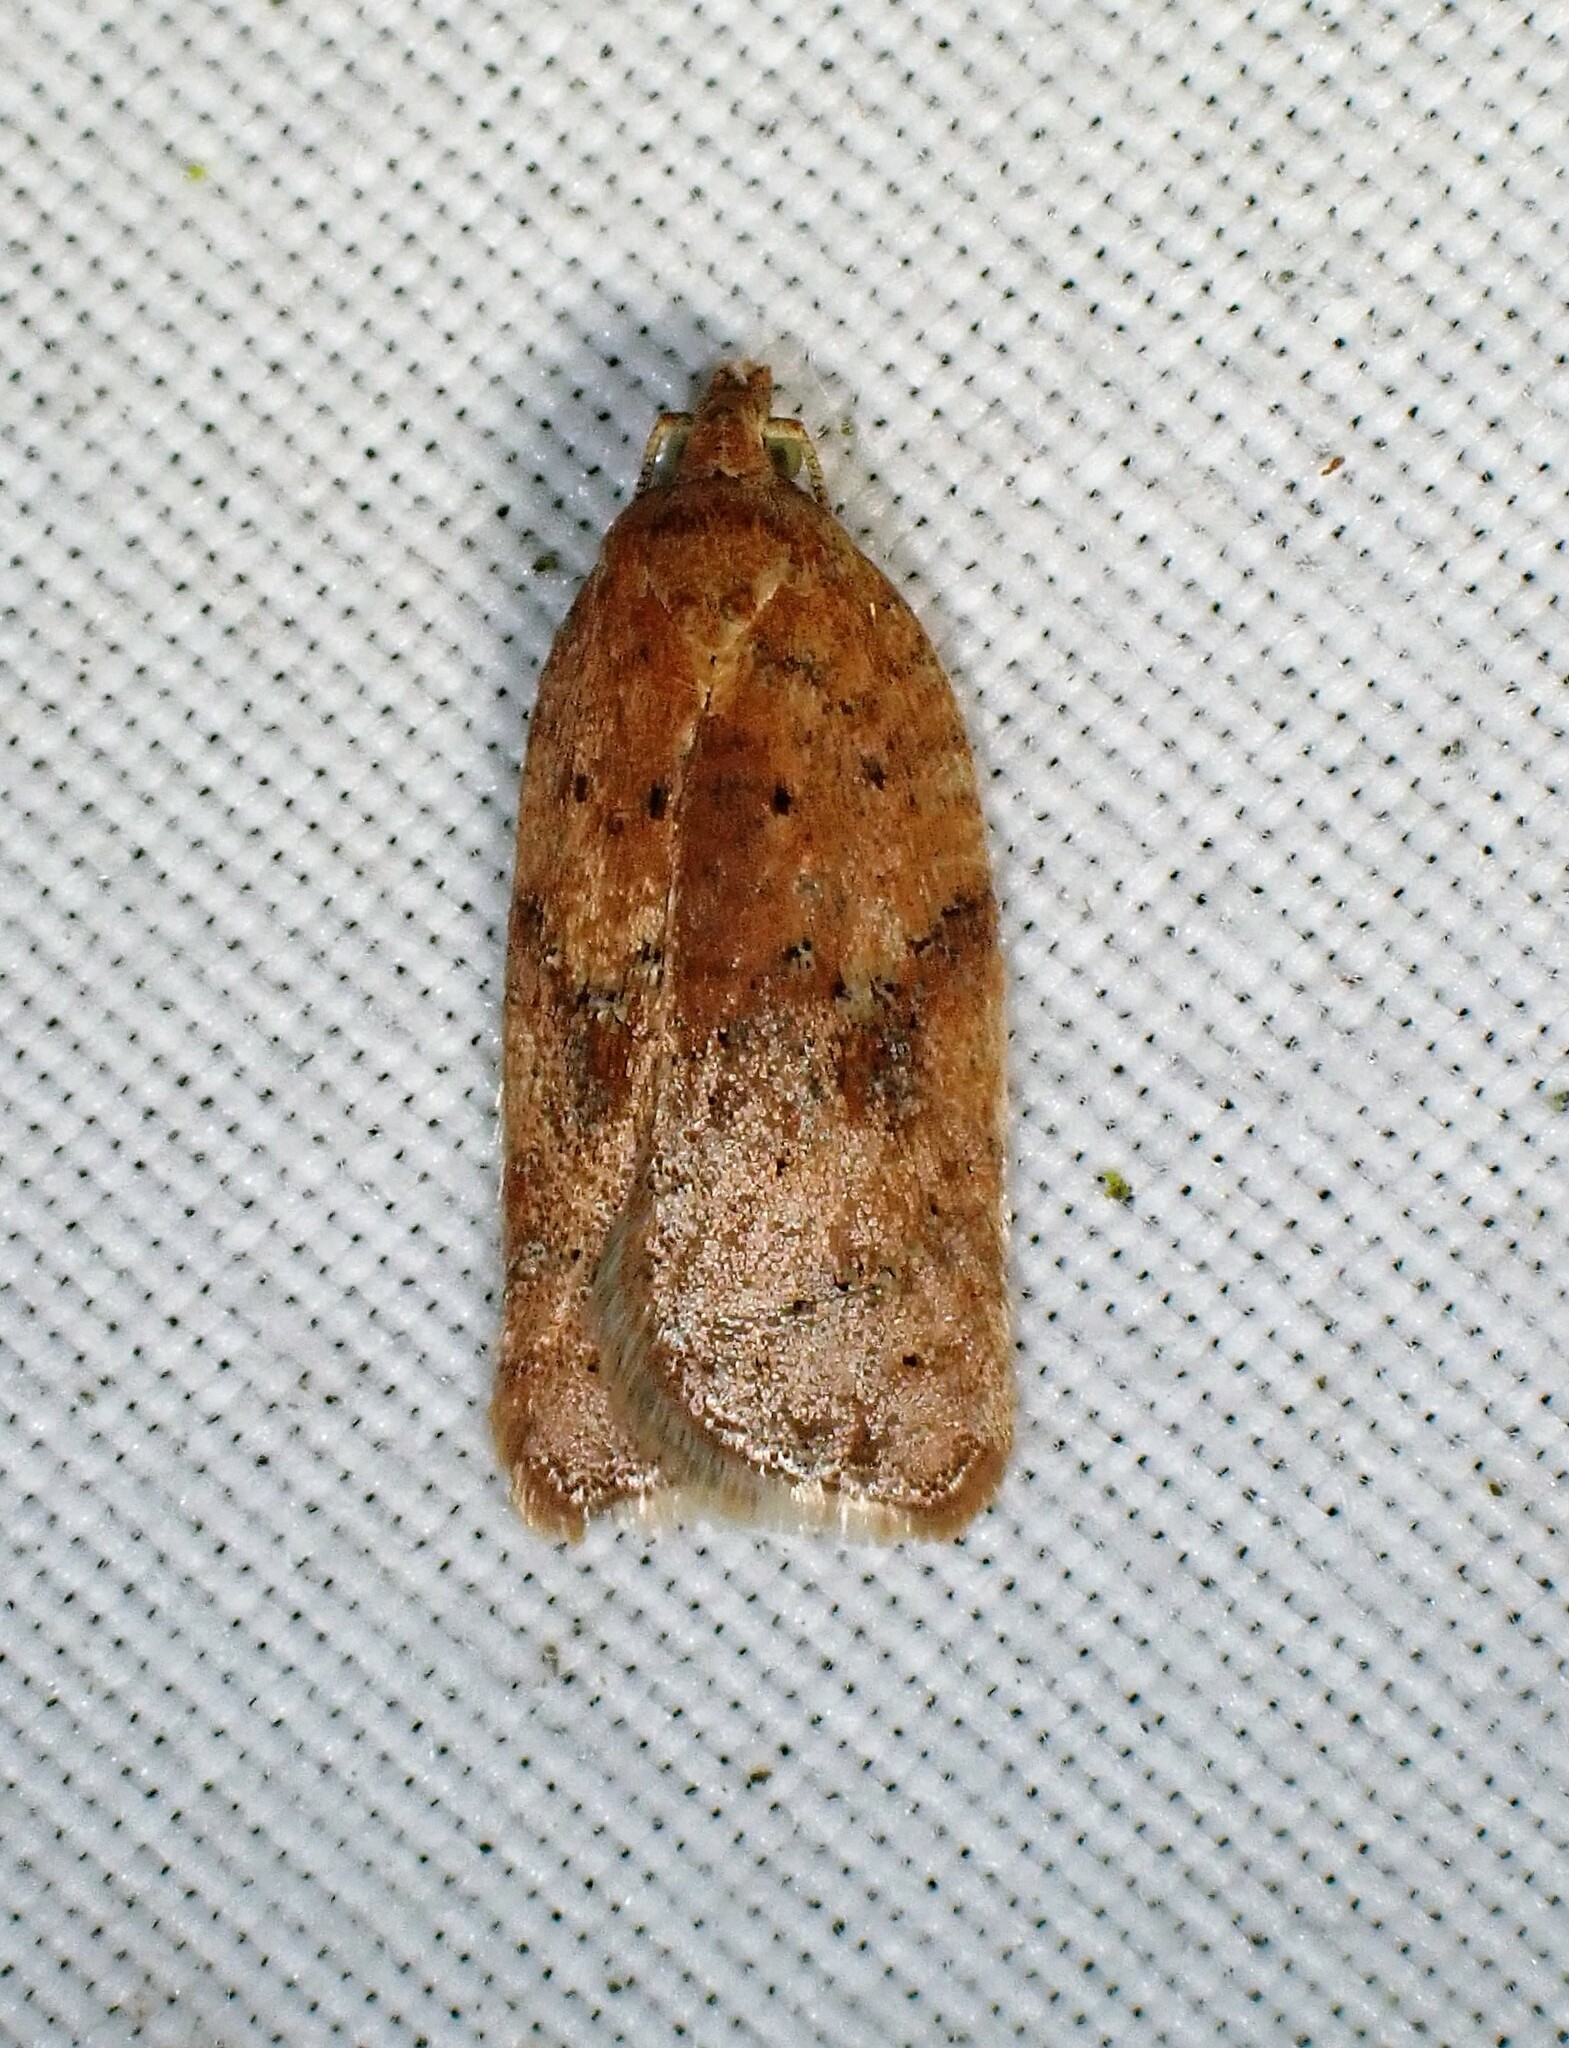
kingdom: Animalia
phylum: Arthropoda
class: Insecta
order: Lepidoptera
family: Tortricidae
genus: Acleris
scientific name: Acleris stadiana
